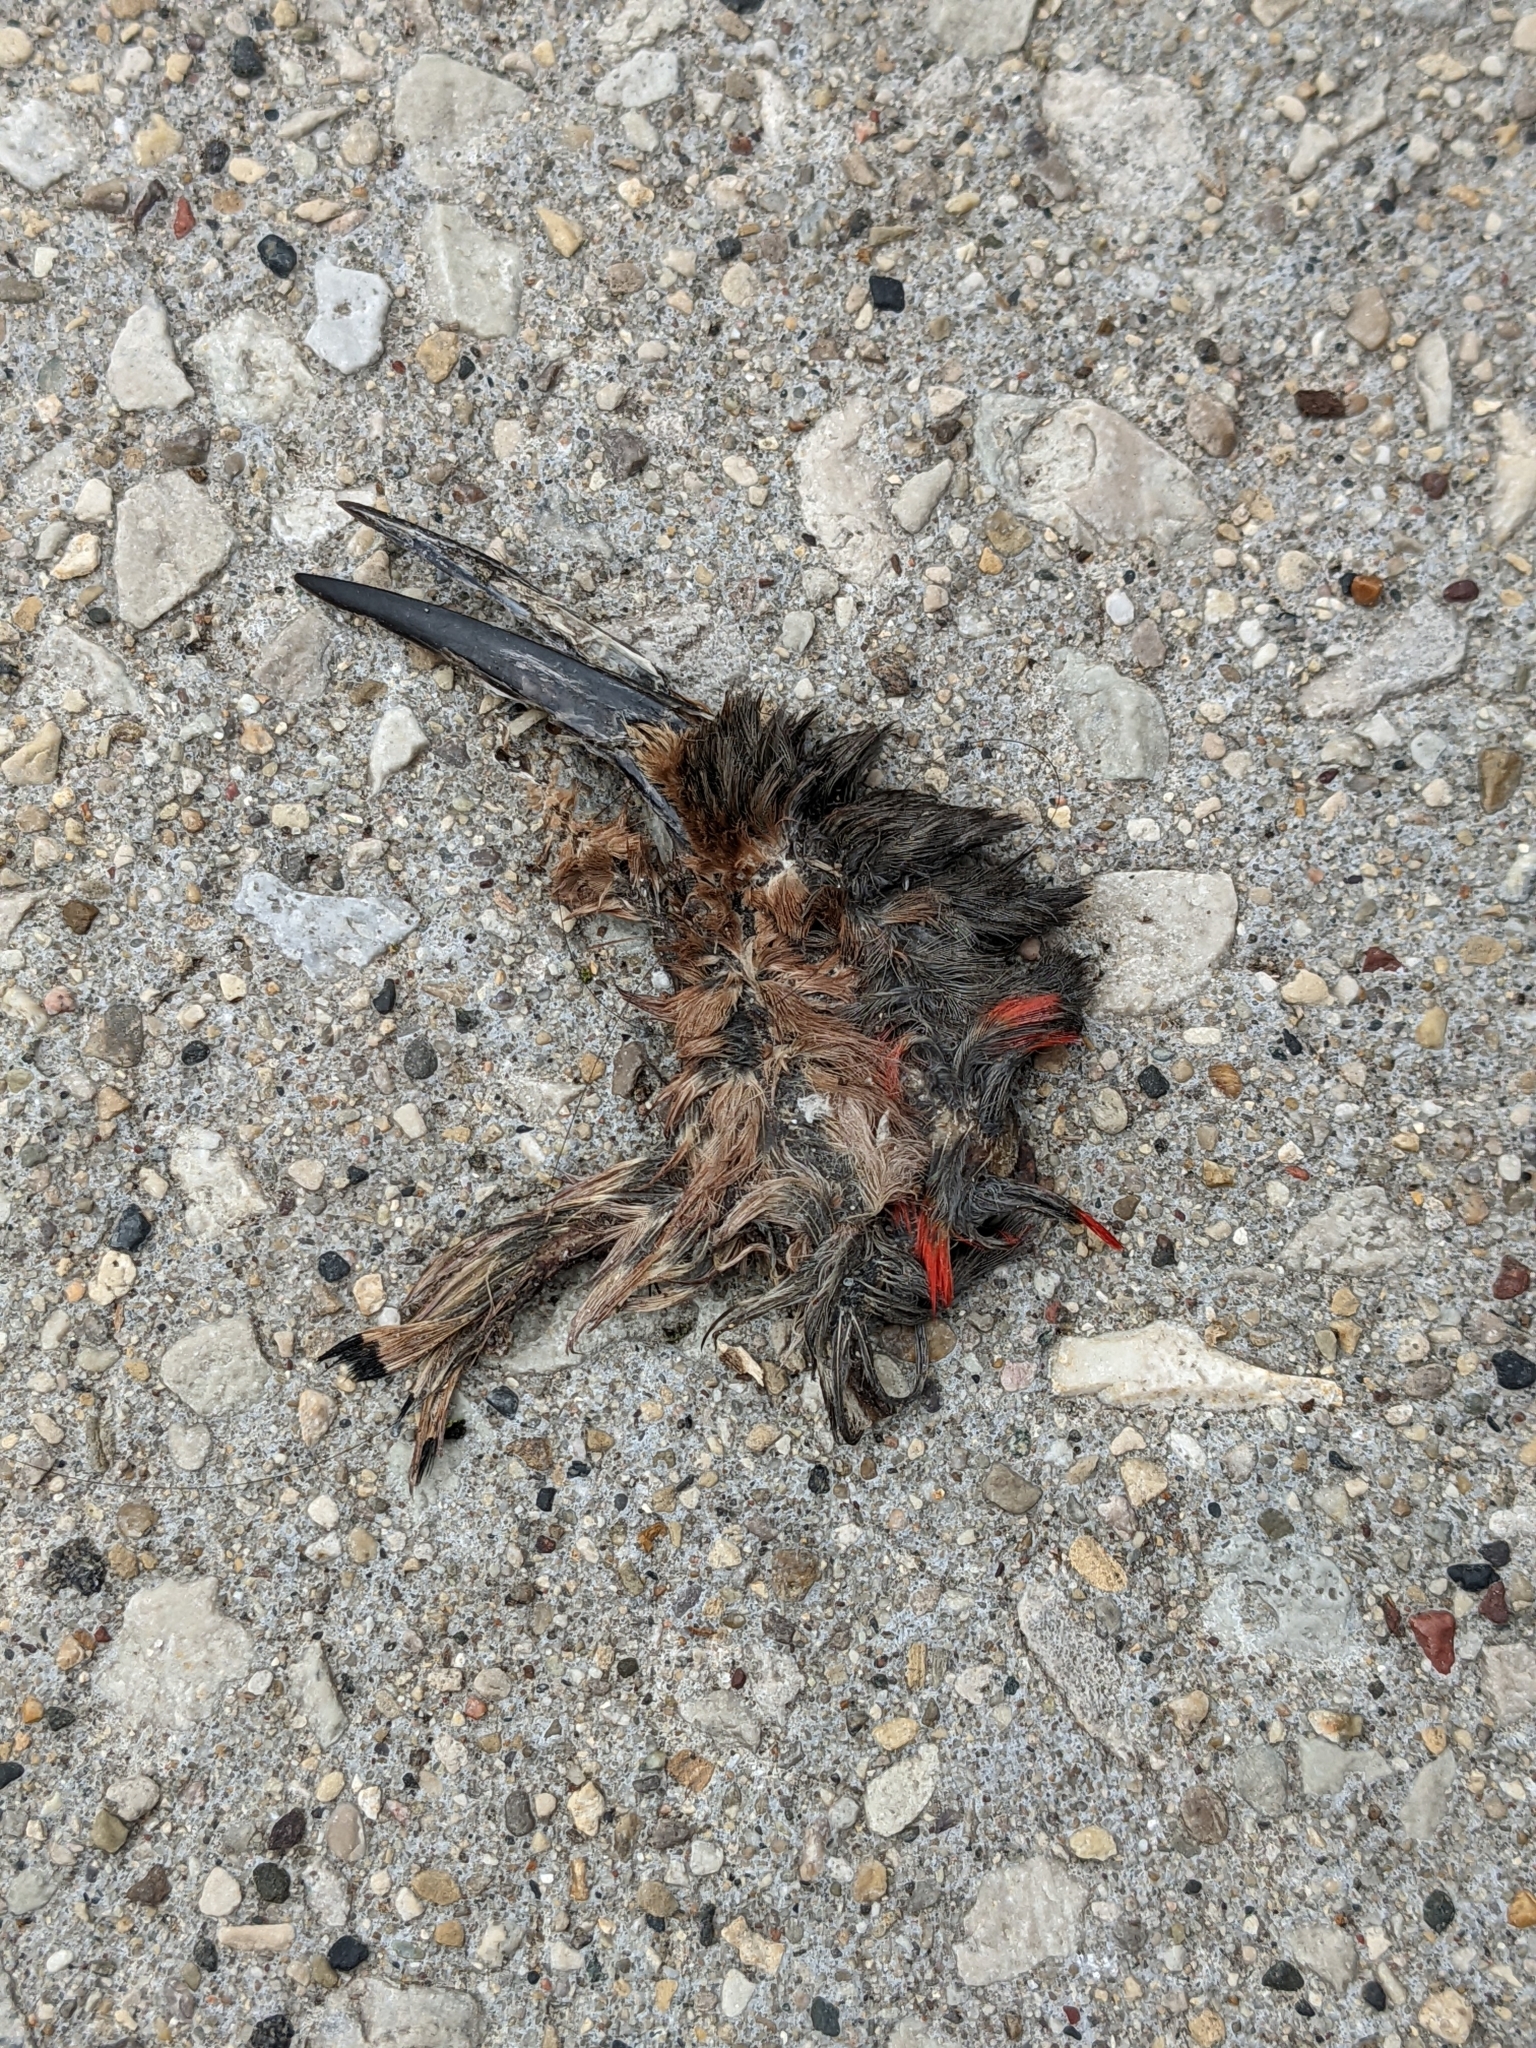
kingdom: Animalia
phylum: Chordata
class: Aves
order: Piciformes
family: Picidae
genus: Colaptes
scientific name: Colaptes auratus
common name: Northern flicker
